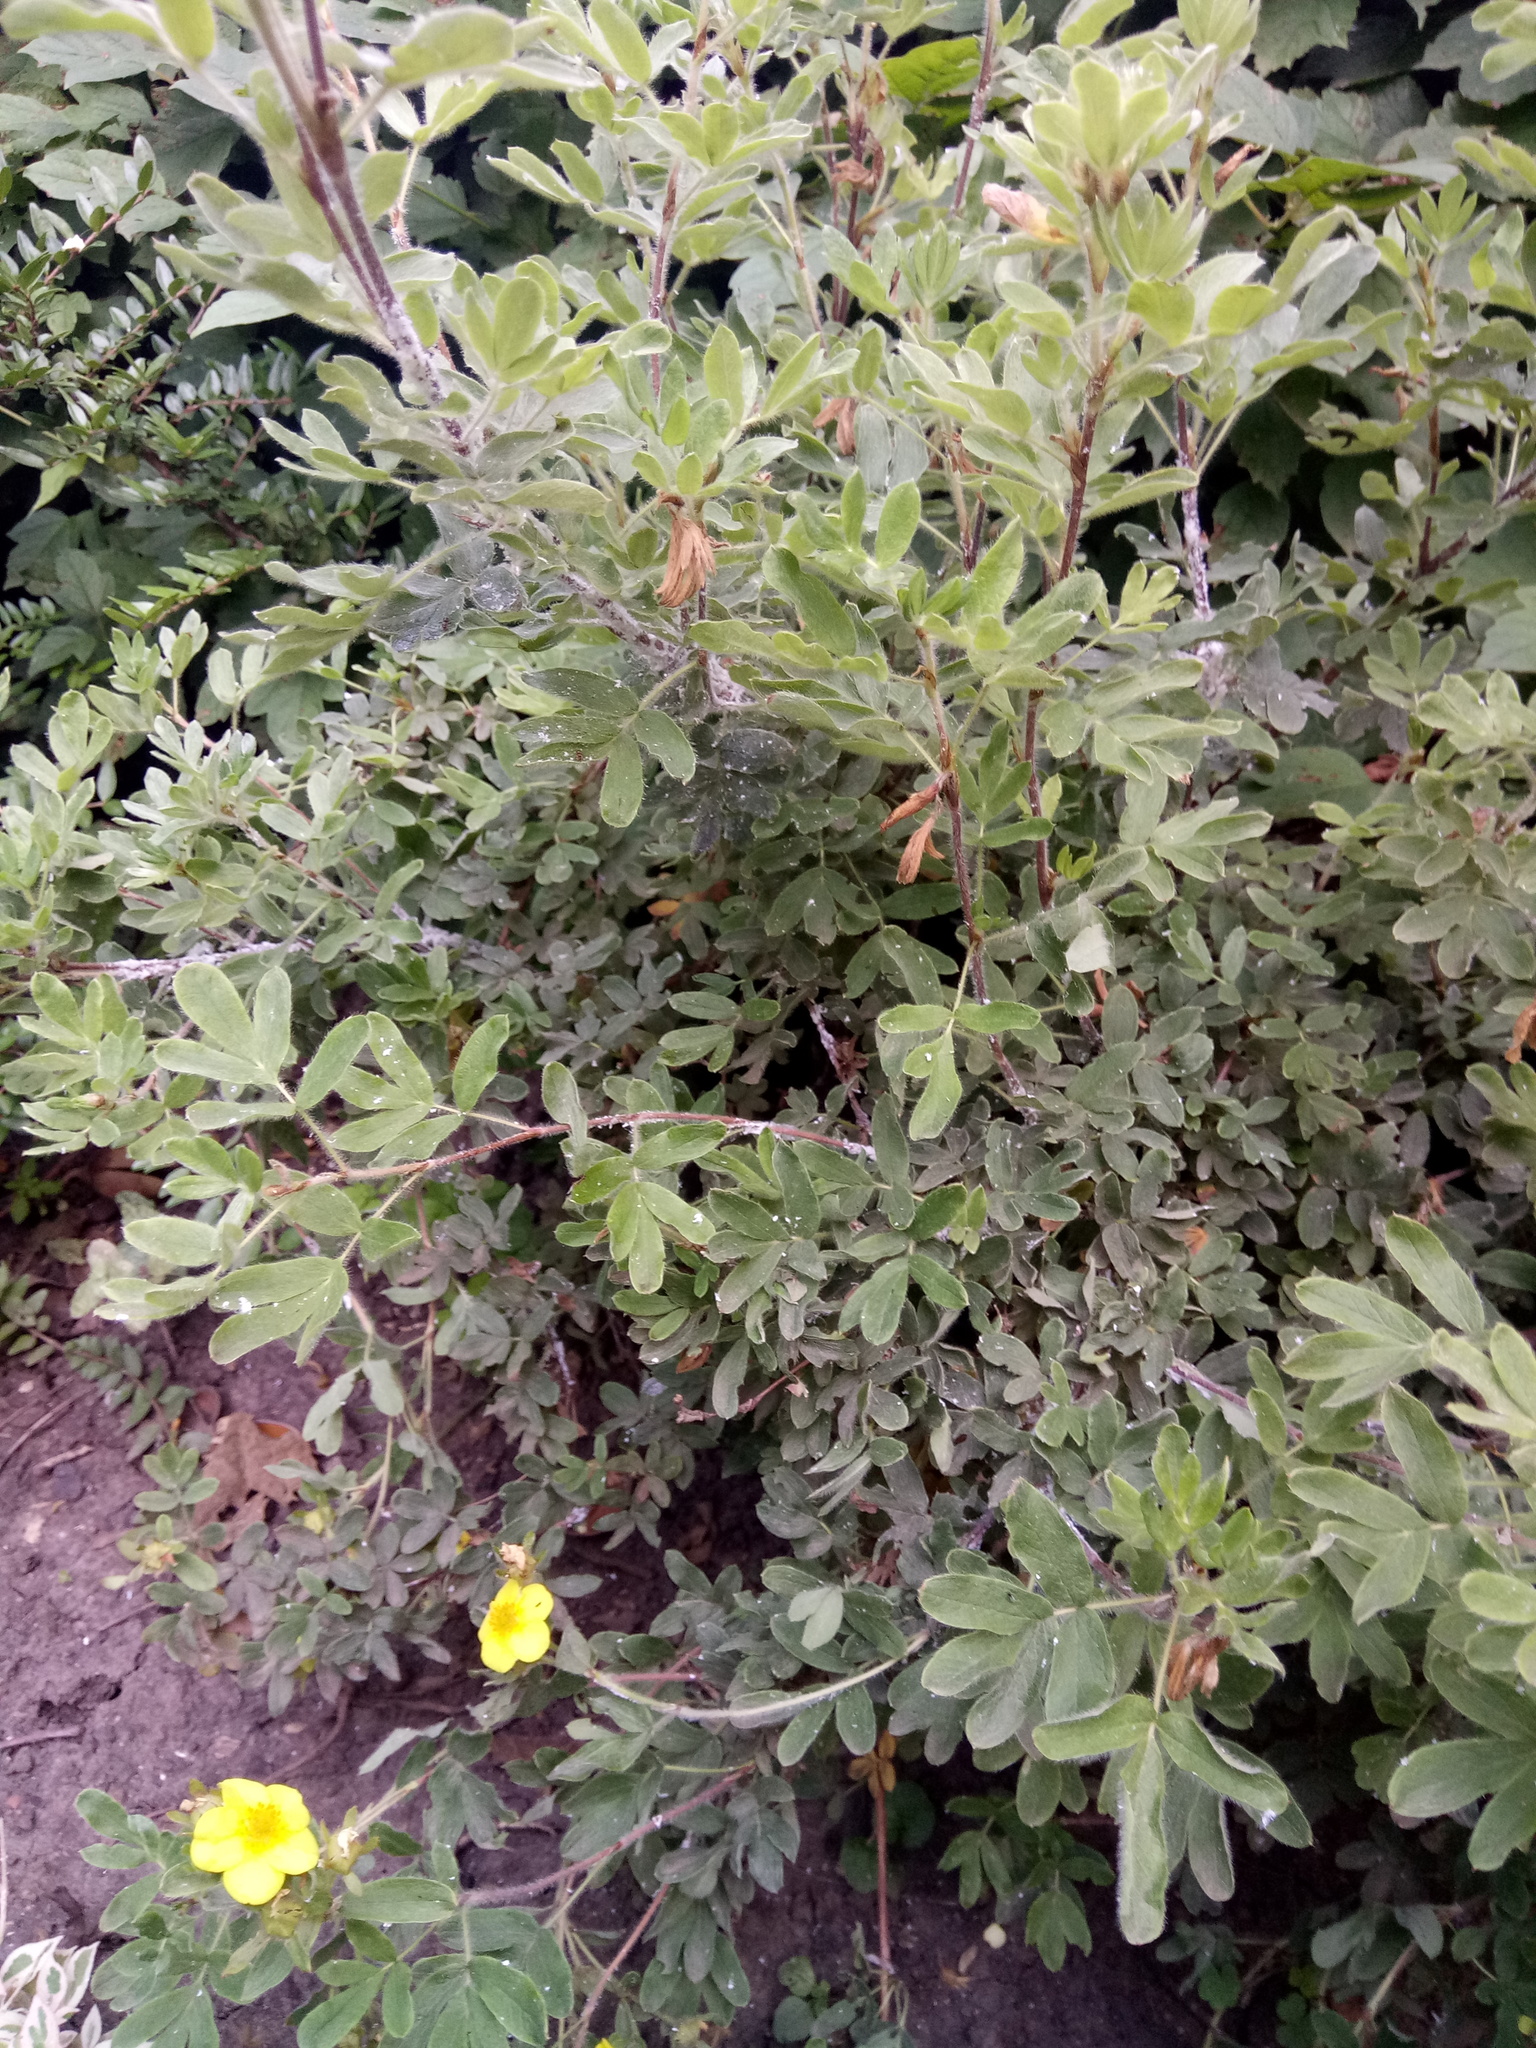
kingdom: Plantae
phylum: Tracheophyta
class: Magnoliopsida
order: Rosales
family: Rosaceae
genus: Dasiphora
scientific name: Dasiphora fruticosa
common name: Shrubby cinquefoil
